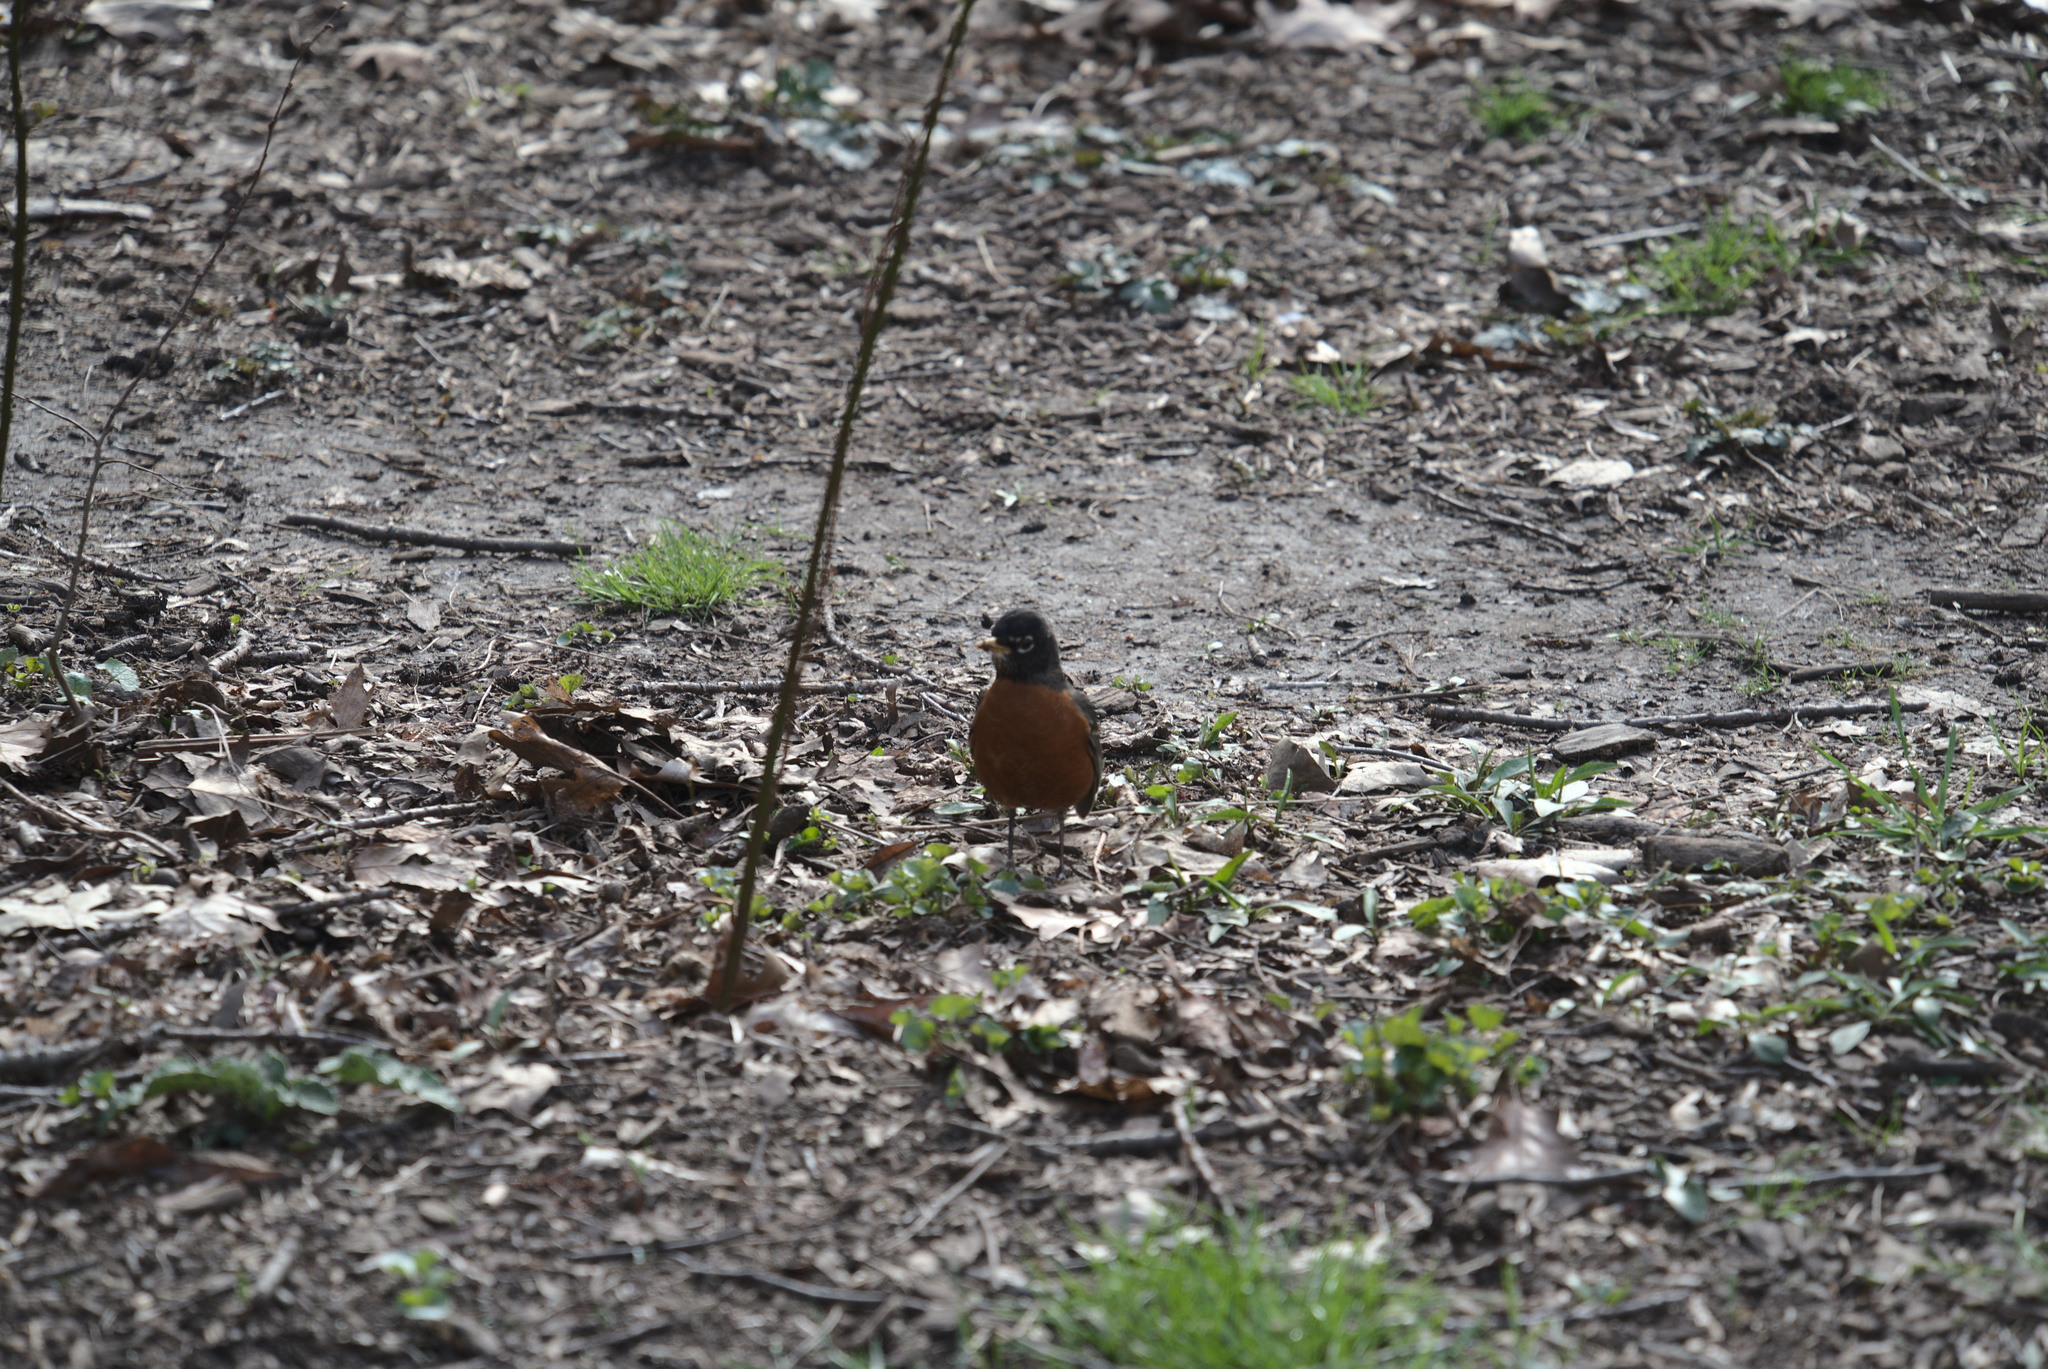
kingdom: Animalia
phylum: Chordata
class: Aves
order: Passeriformes
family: Turdidae
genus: Turdus
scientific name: Turdus migratorius
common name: American robin
